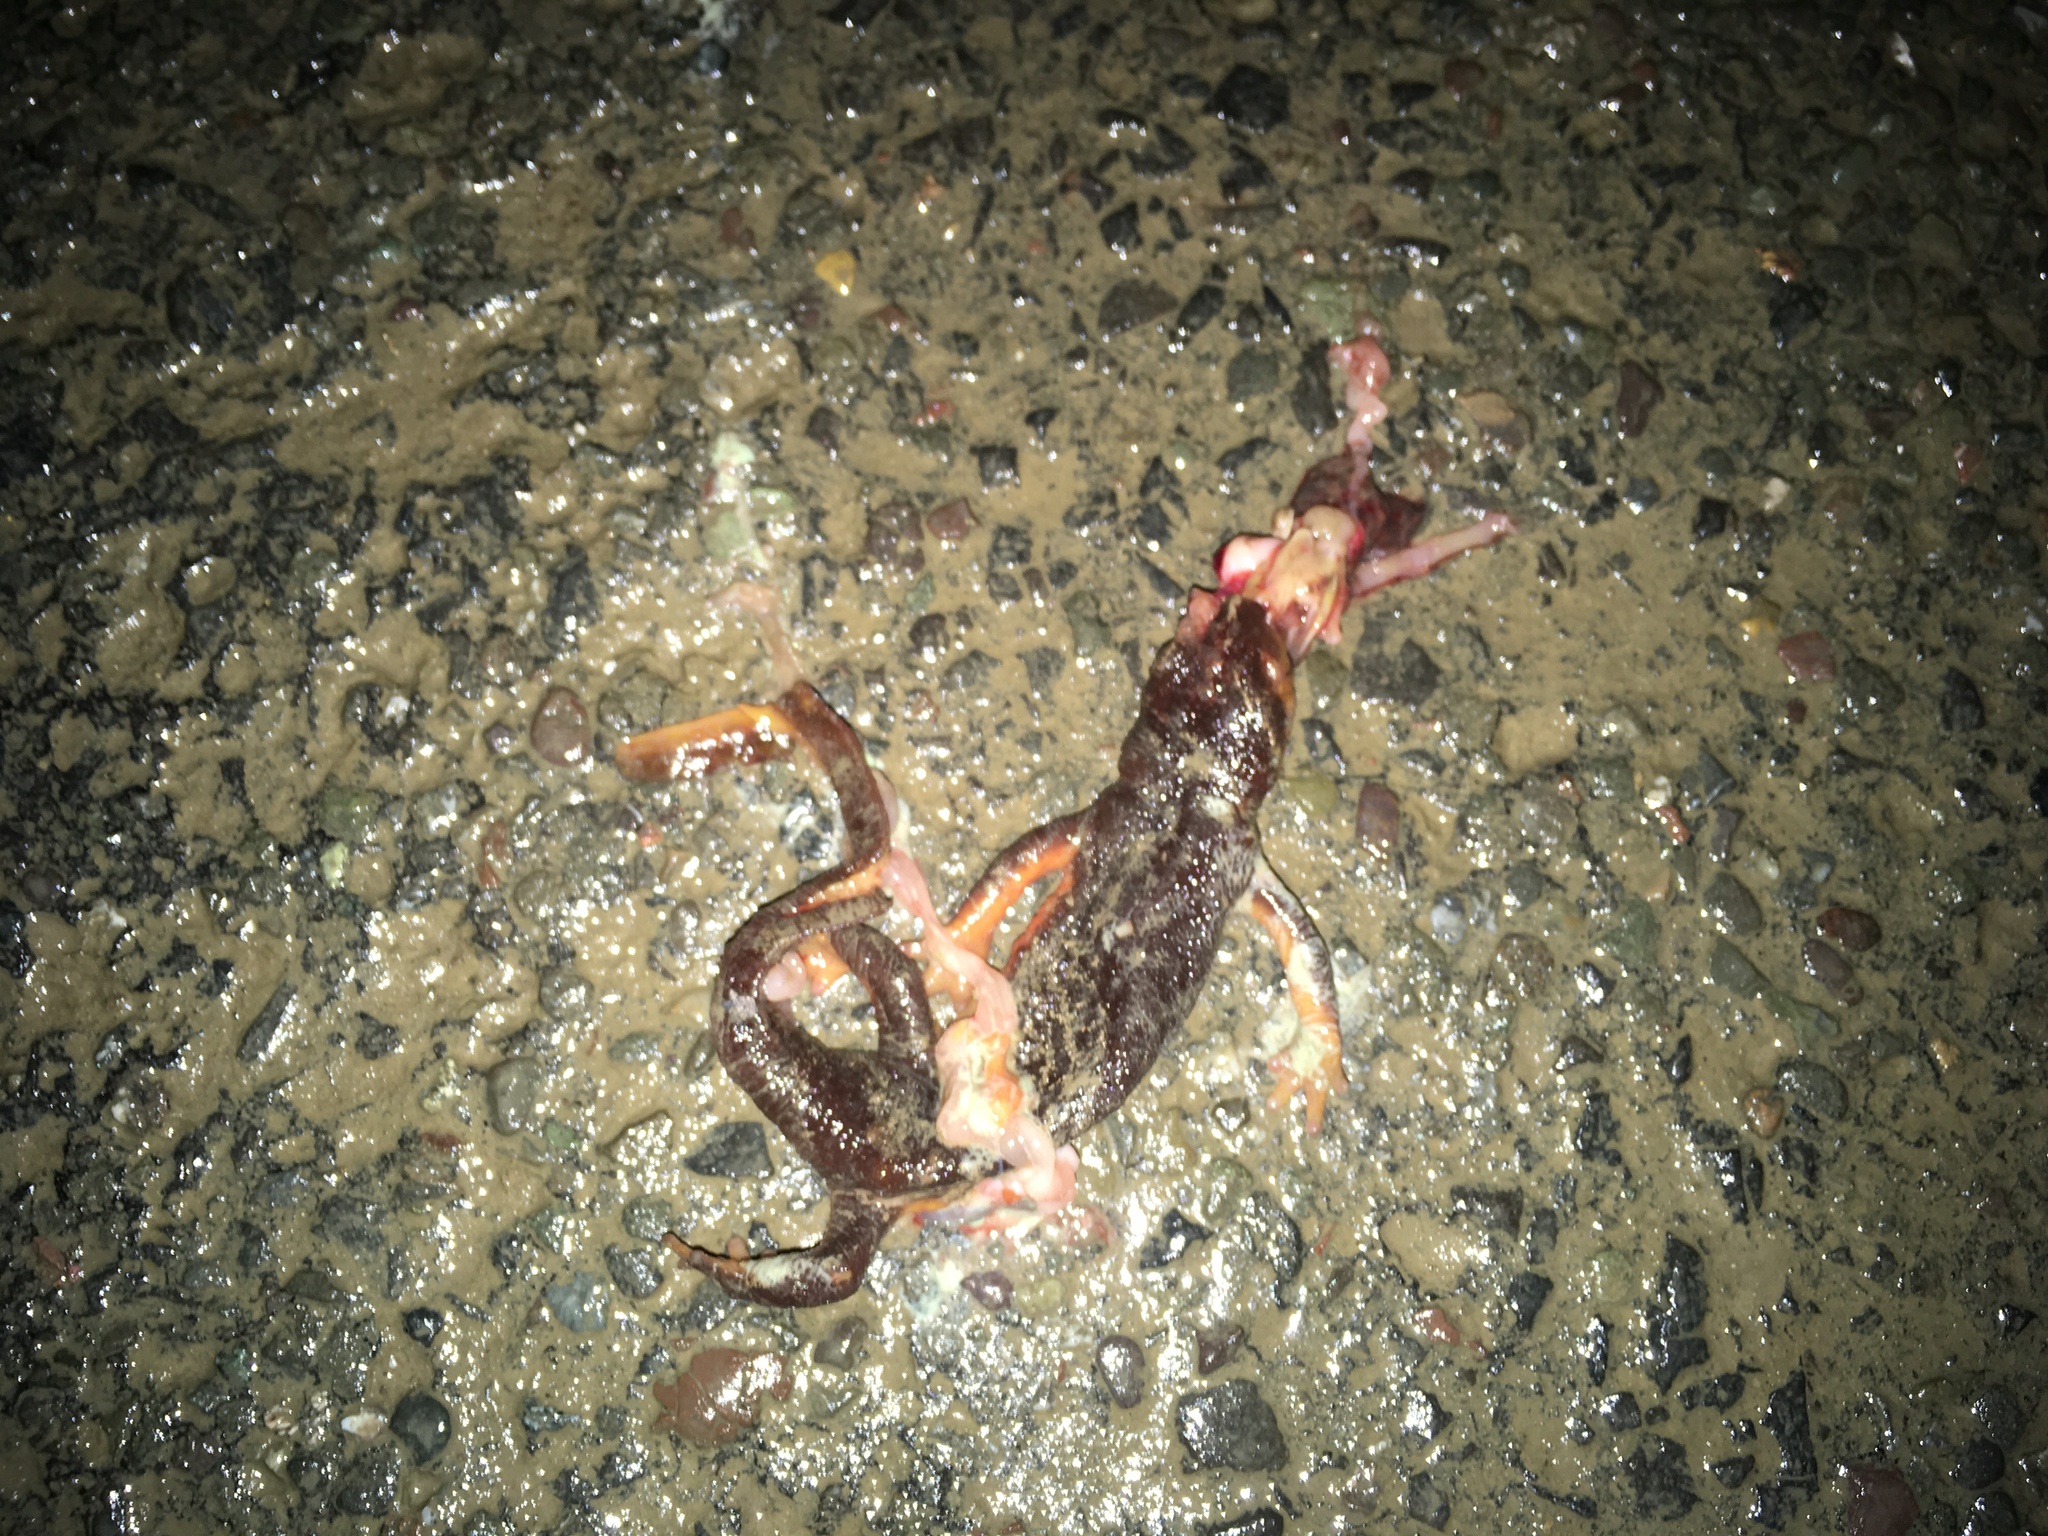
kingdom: Animalia
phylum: Chordata
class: Amphibia
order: Caudata
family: Salamandridae
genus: Taricha
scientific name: Taricha
